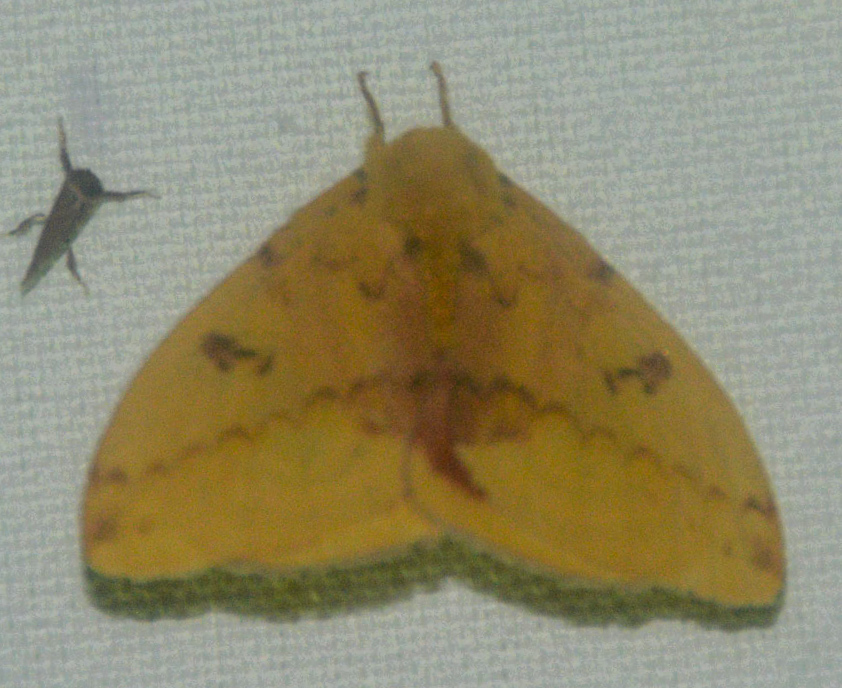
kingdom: Animalia
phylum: Arthropoda
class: Insecta
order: Lepidoptera
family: Saturniidae
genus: Automeris
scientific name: Automeris io
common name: Io moth
